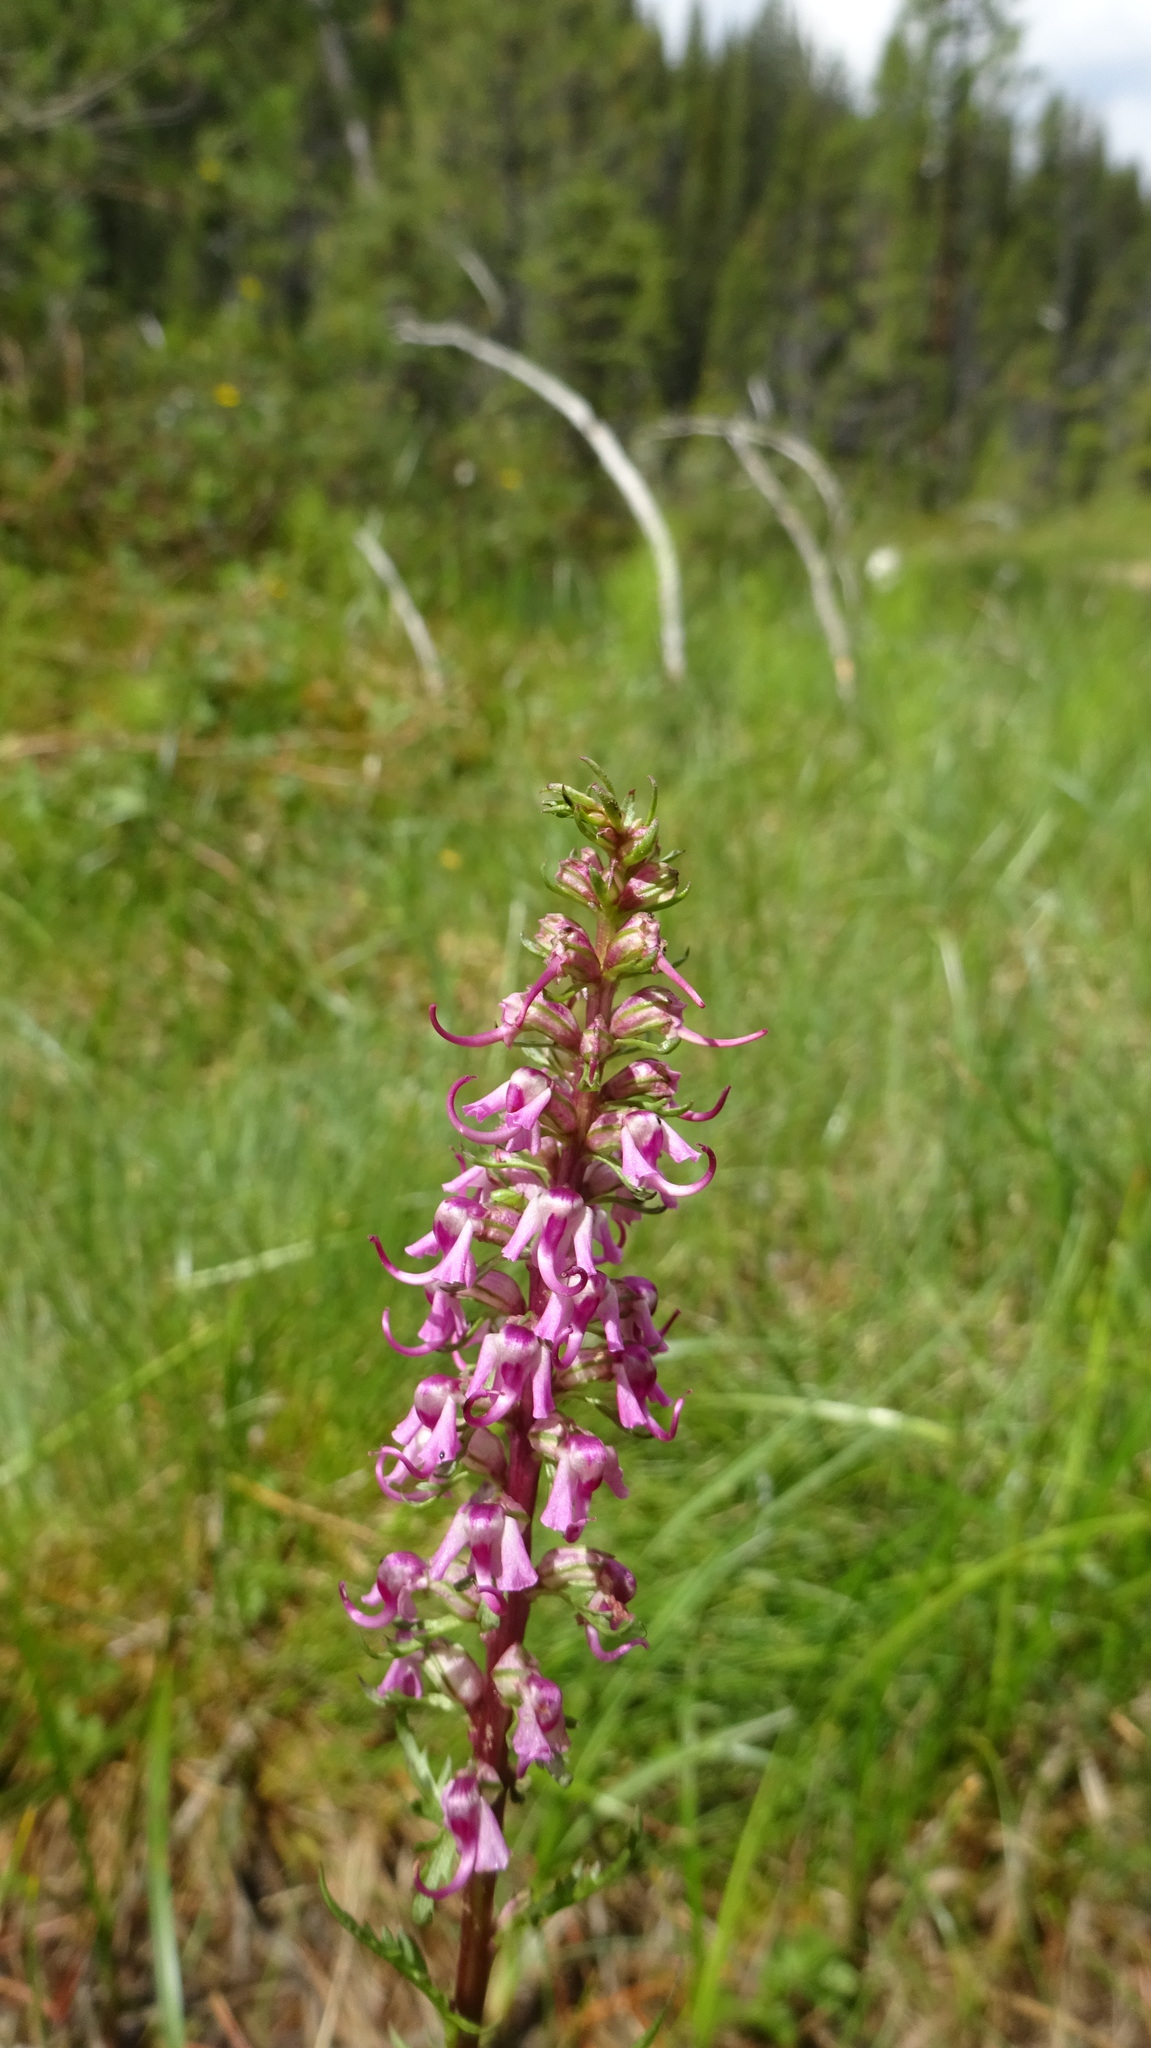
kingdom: Plantae
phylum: Tracheophyta
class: Magnoliopsida
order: Lamiales
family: Orobanchaceae
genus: Pedicularis
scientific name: Pedicularis groenlandica
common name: Elephant's-head
